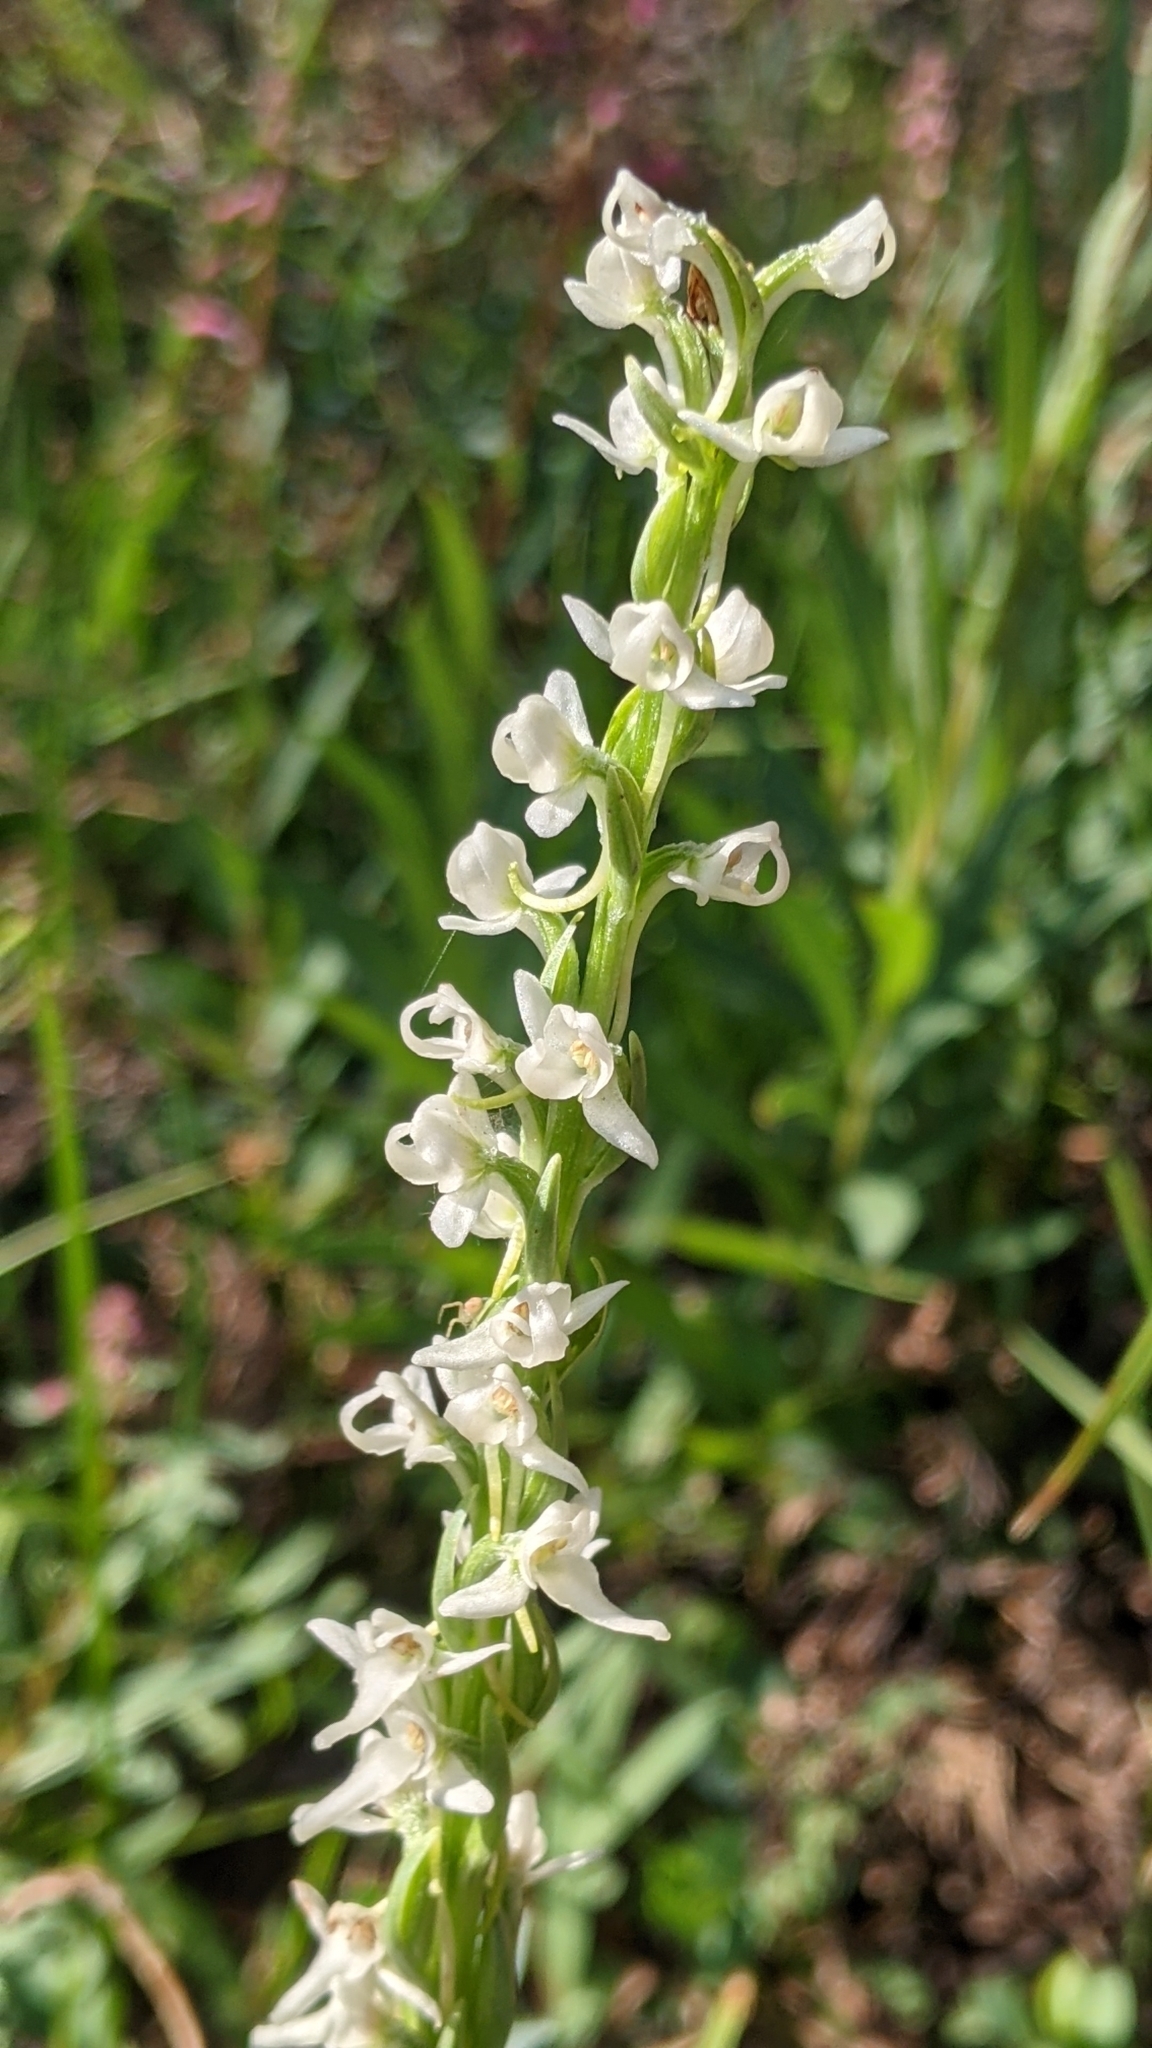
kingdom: Plantae
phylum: Tracheophyta
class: Liliopsida
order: Asparagales
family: Orchidaceae
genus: Platanthera
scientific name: Platanthera dilatata
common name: Bog candles
